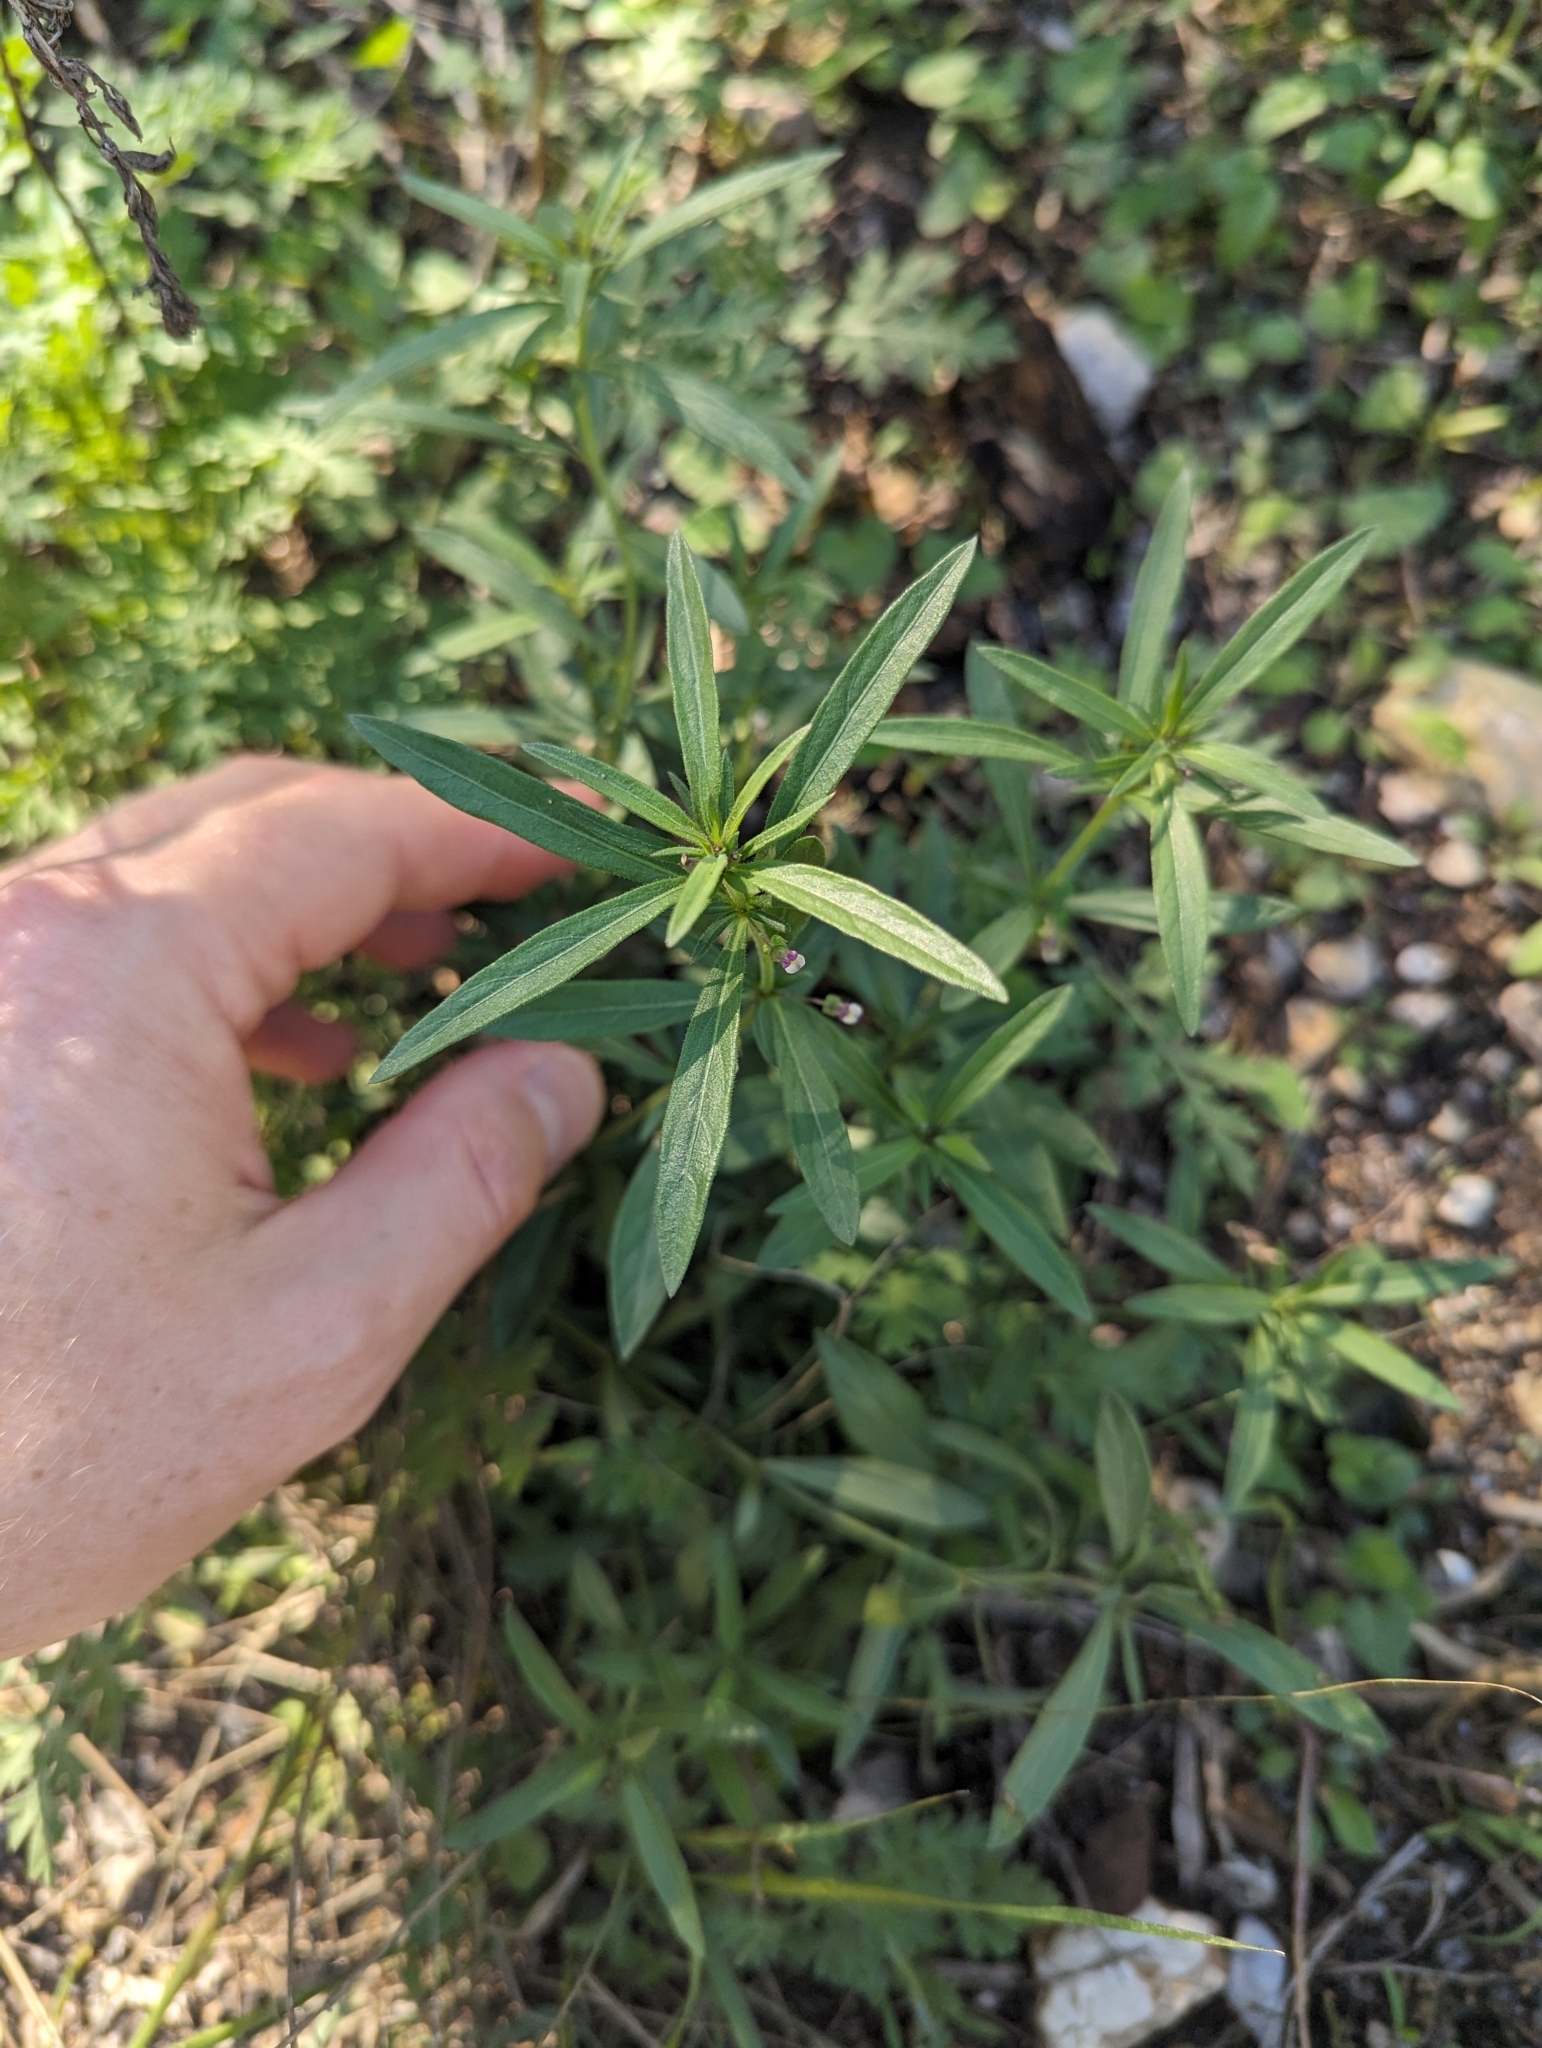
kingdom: Plantae
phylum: Tracheophyta
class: Magnoliopsida
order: Malpighiales
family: Violaceae
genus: Pombalia
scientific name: Pombalia verticillata
